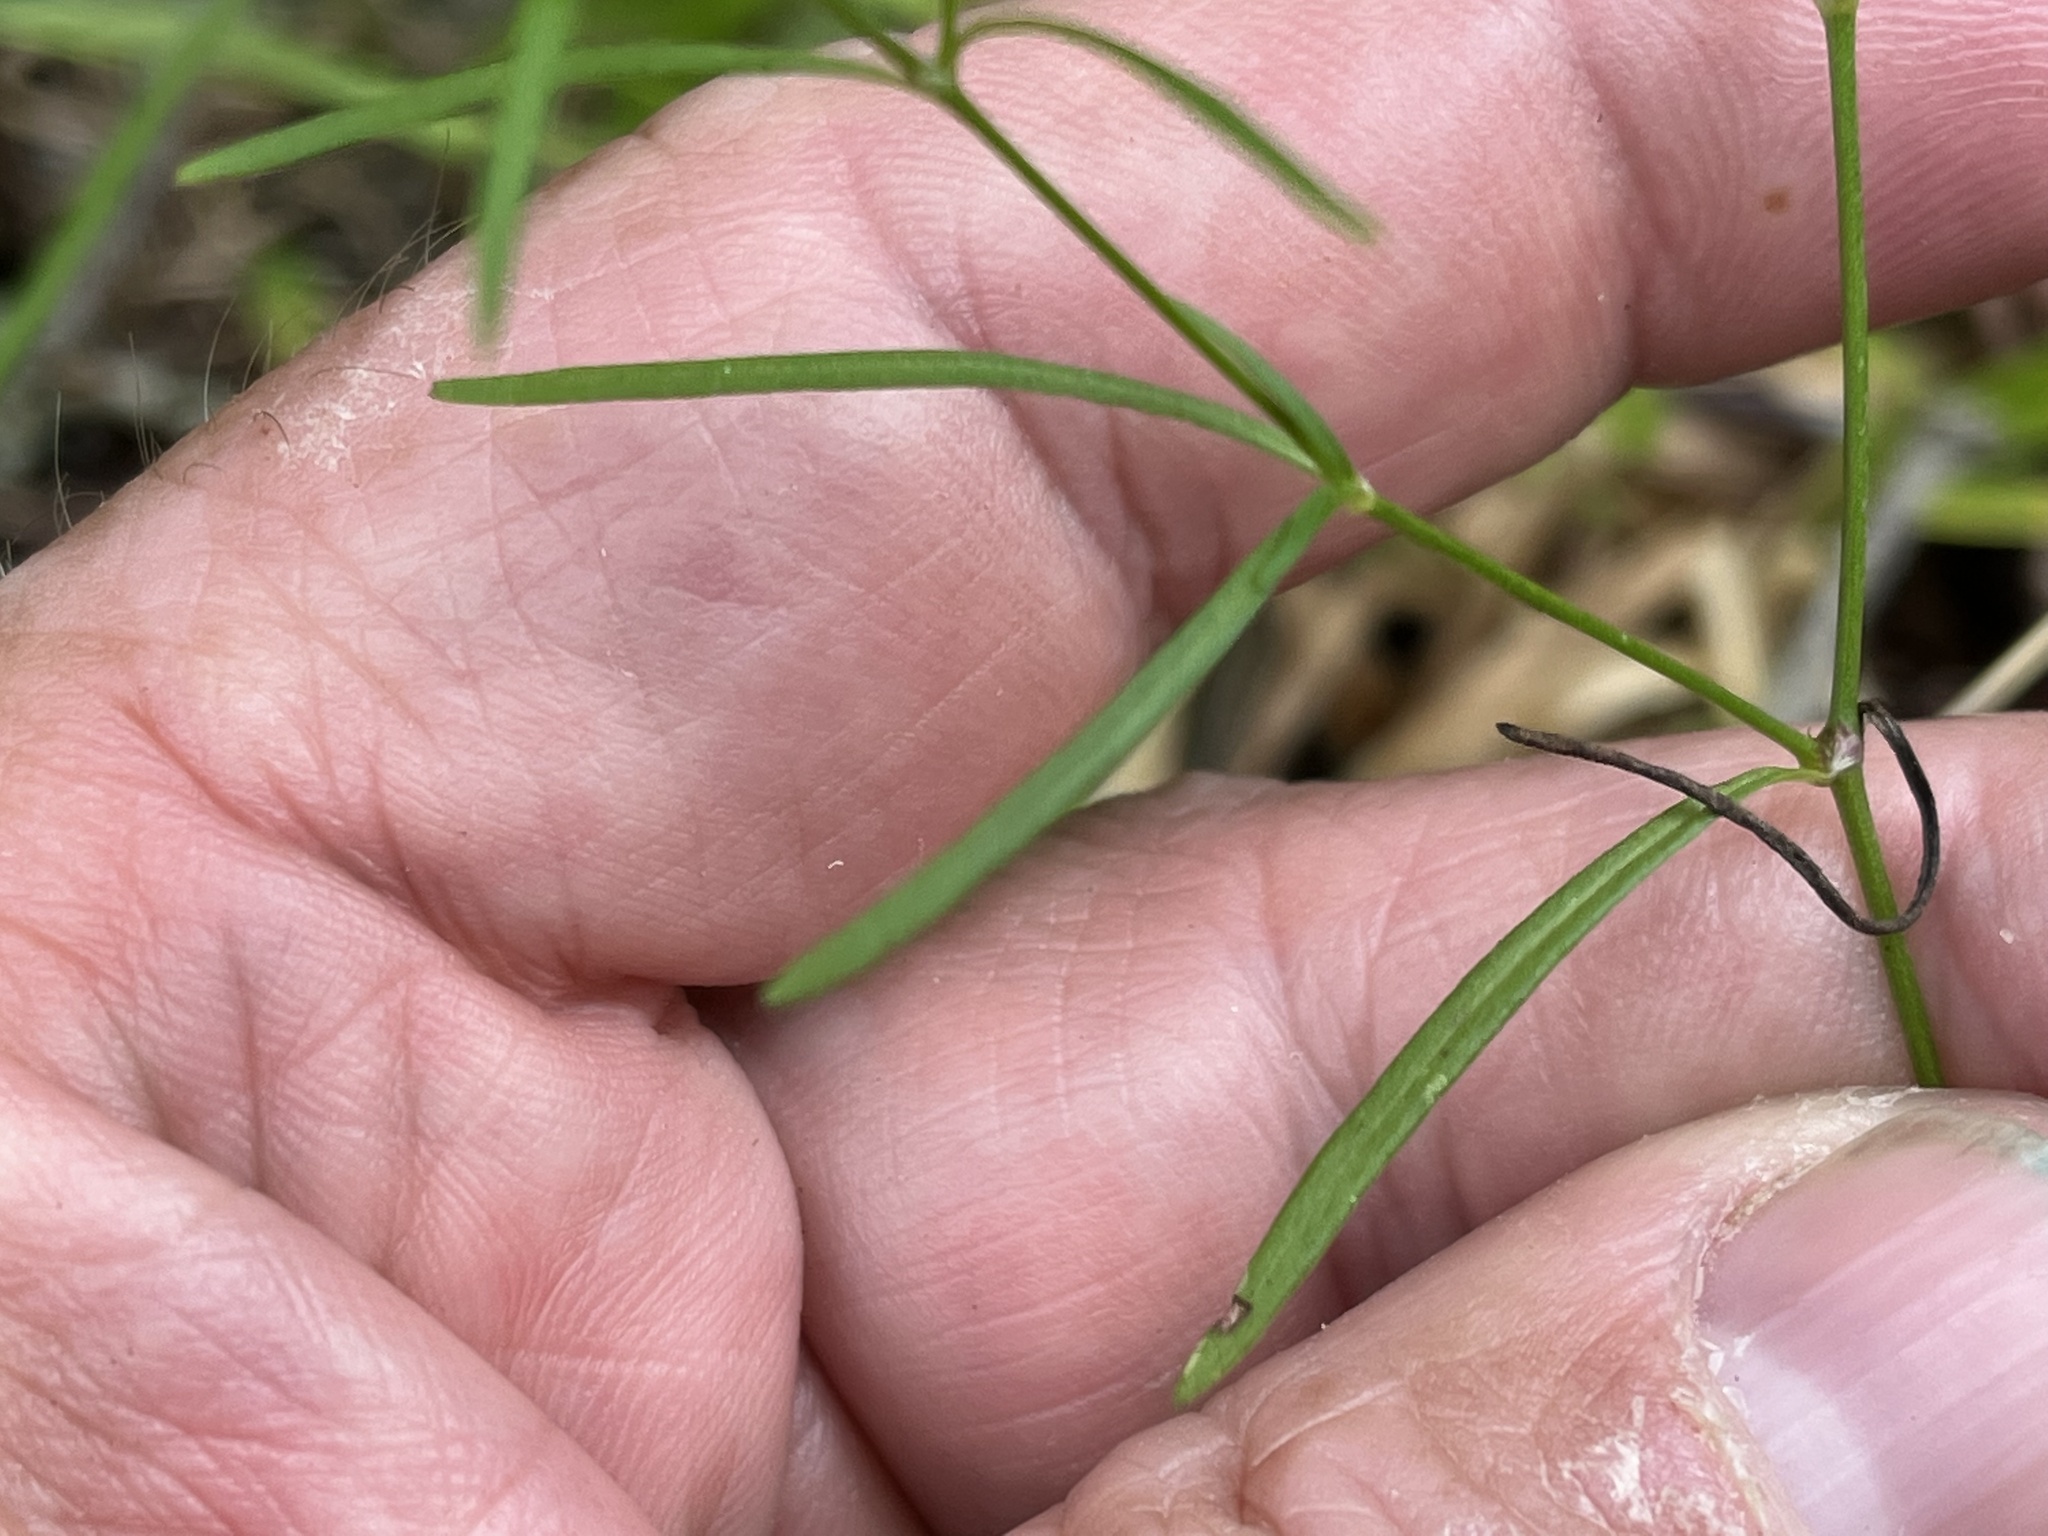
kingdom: Plantae
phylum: Tracheophyta
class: Magnoliopsida
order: Gentianales
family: Rubiaceae
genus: Houstonia
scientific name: Houstonia longifolia
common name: Long-leaved bluets
